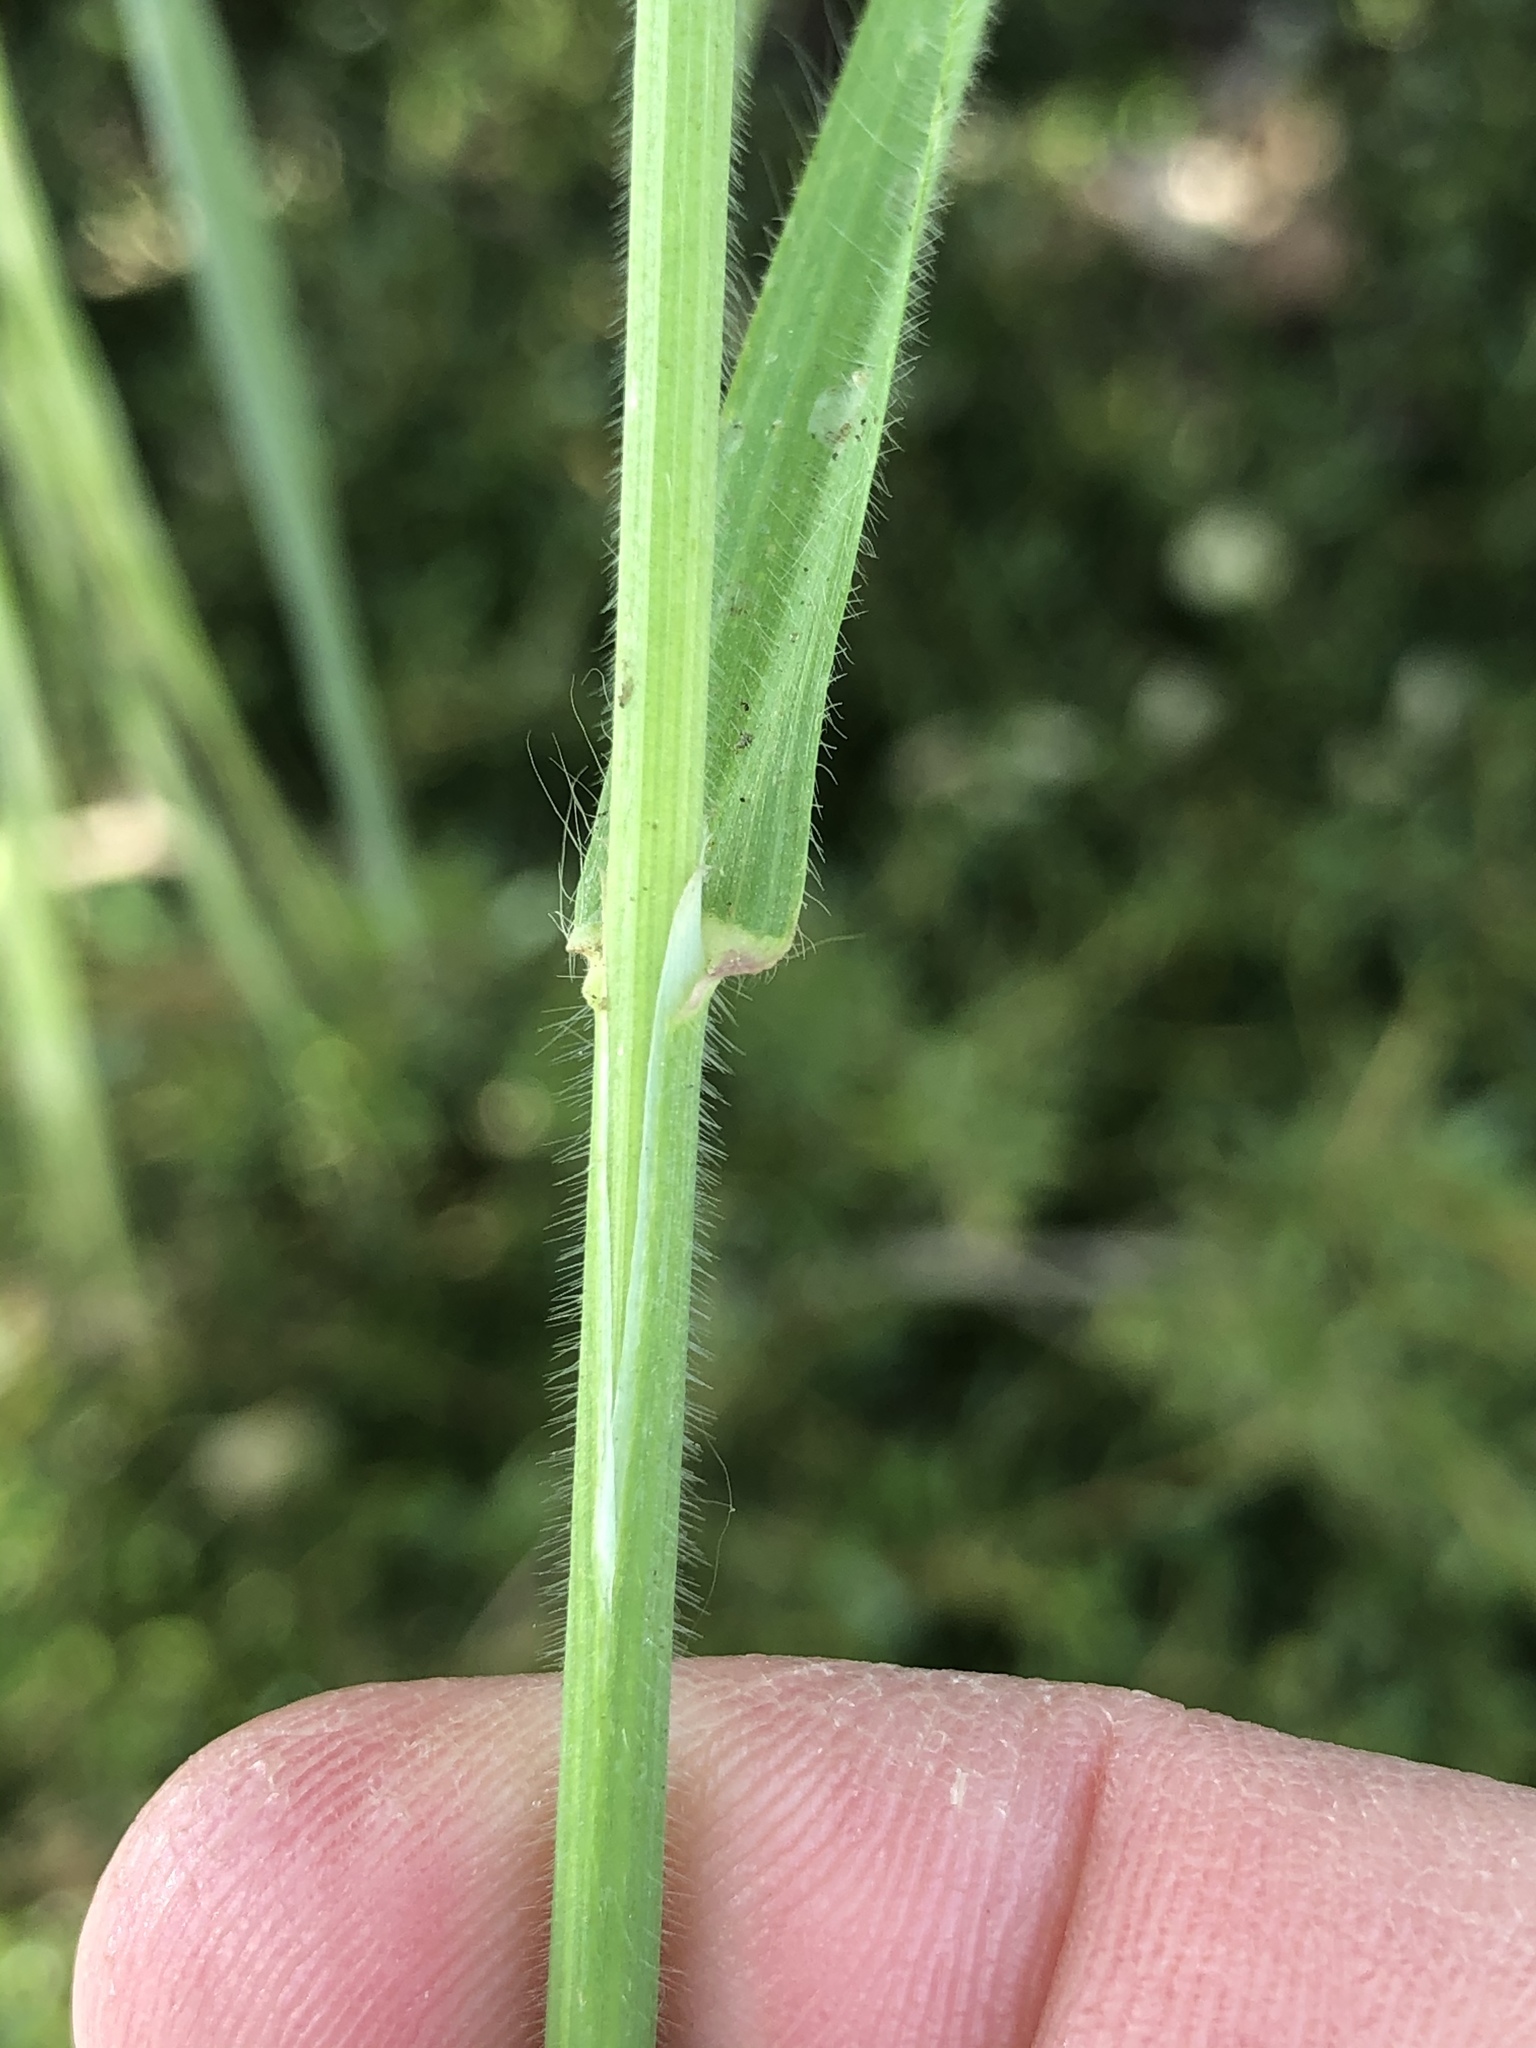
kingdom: Plantae
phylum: Tracheophyta
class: Liliopsida
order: Poales
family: Poaceae
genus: Bromus
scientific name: Bromus diandrus
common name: Ripgut brome
